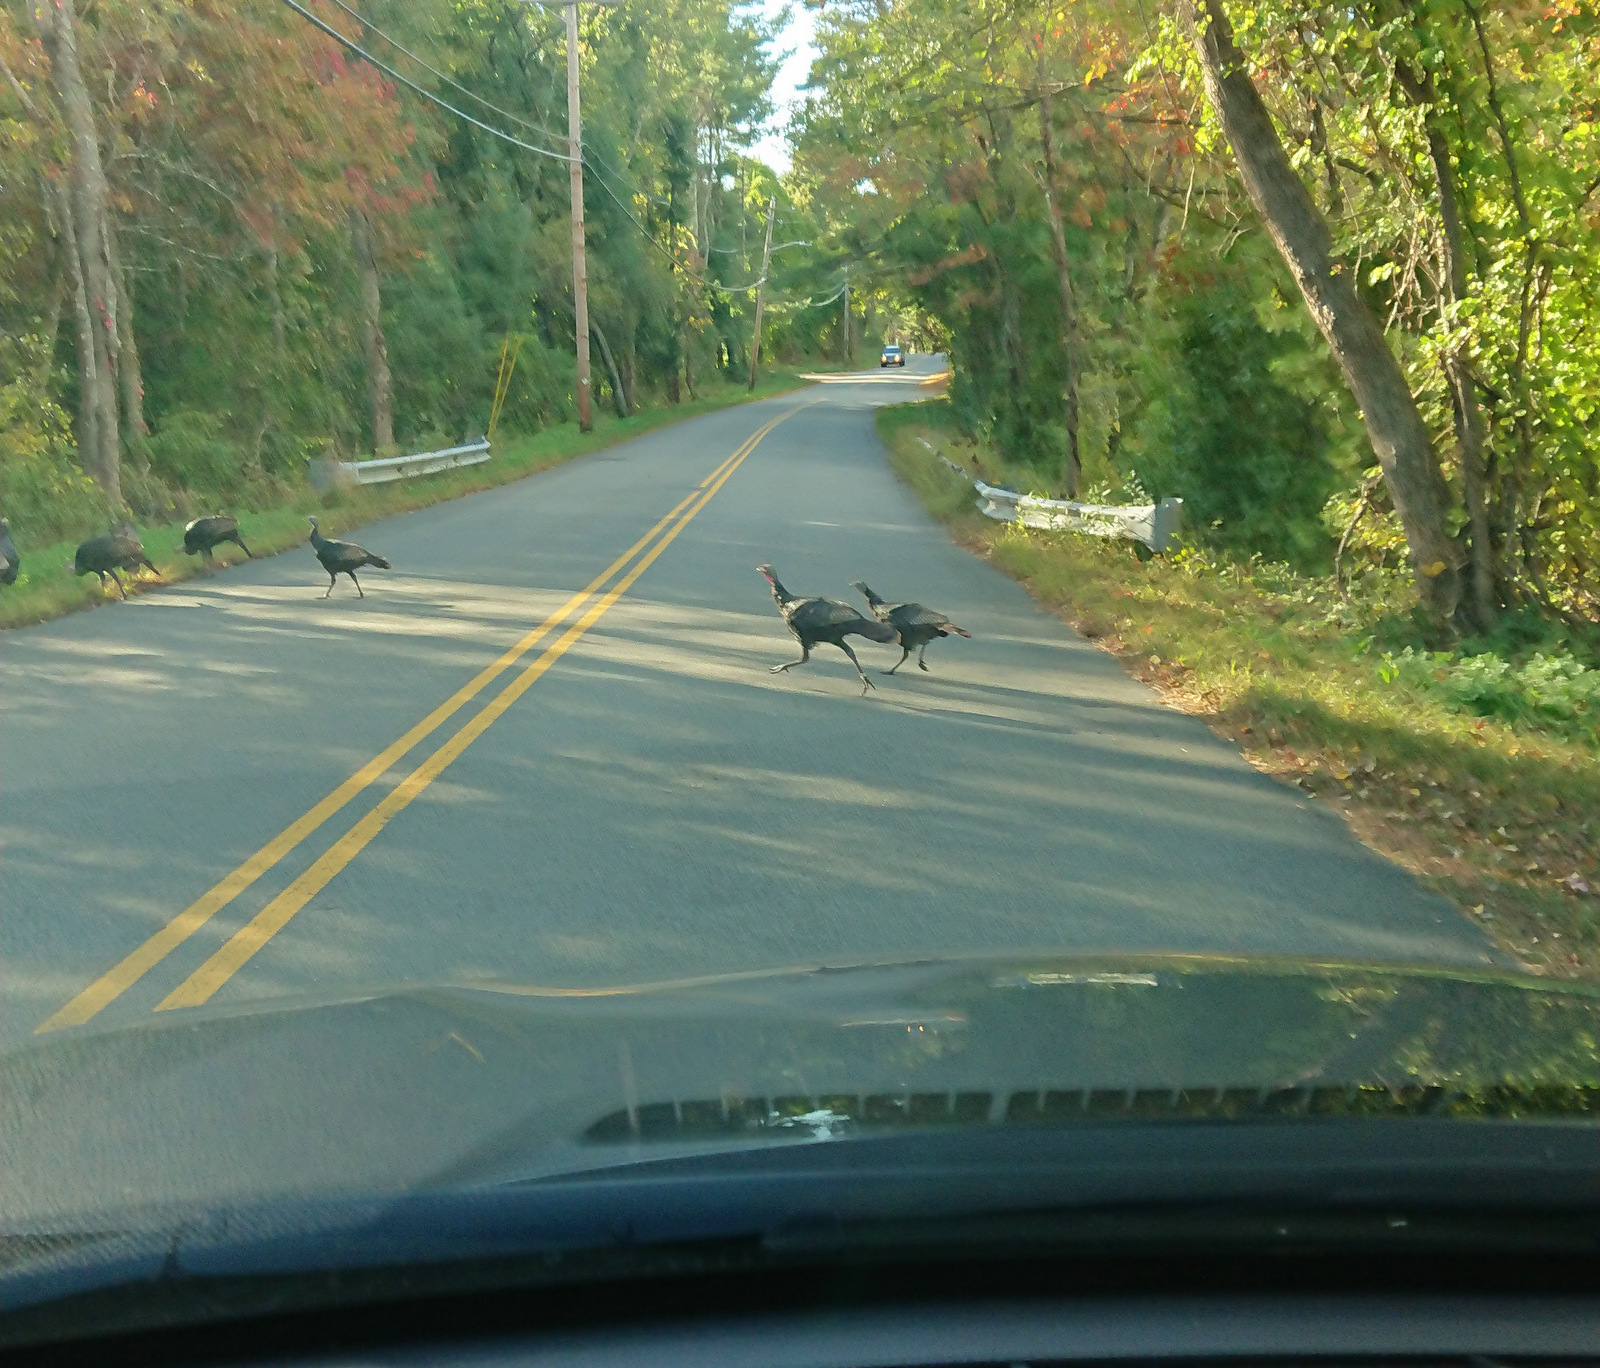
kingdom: Animalia
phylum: Chordata
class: Aves
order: Galliformes
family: Phasianidae
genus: Meleagris
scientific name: Meleagris gallopavo
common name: Wild turkey
